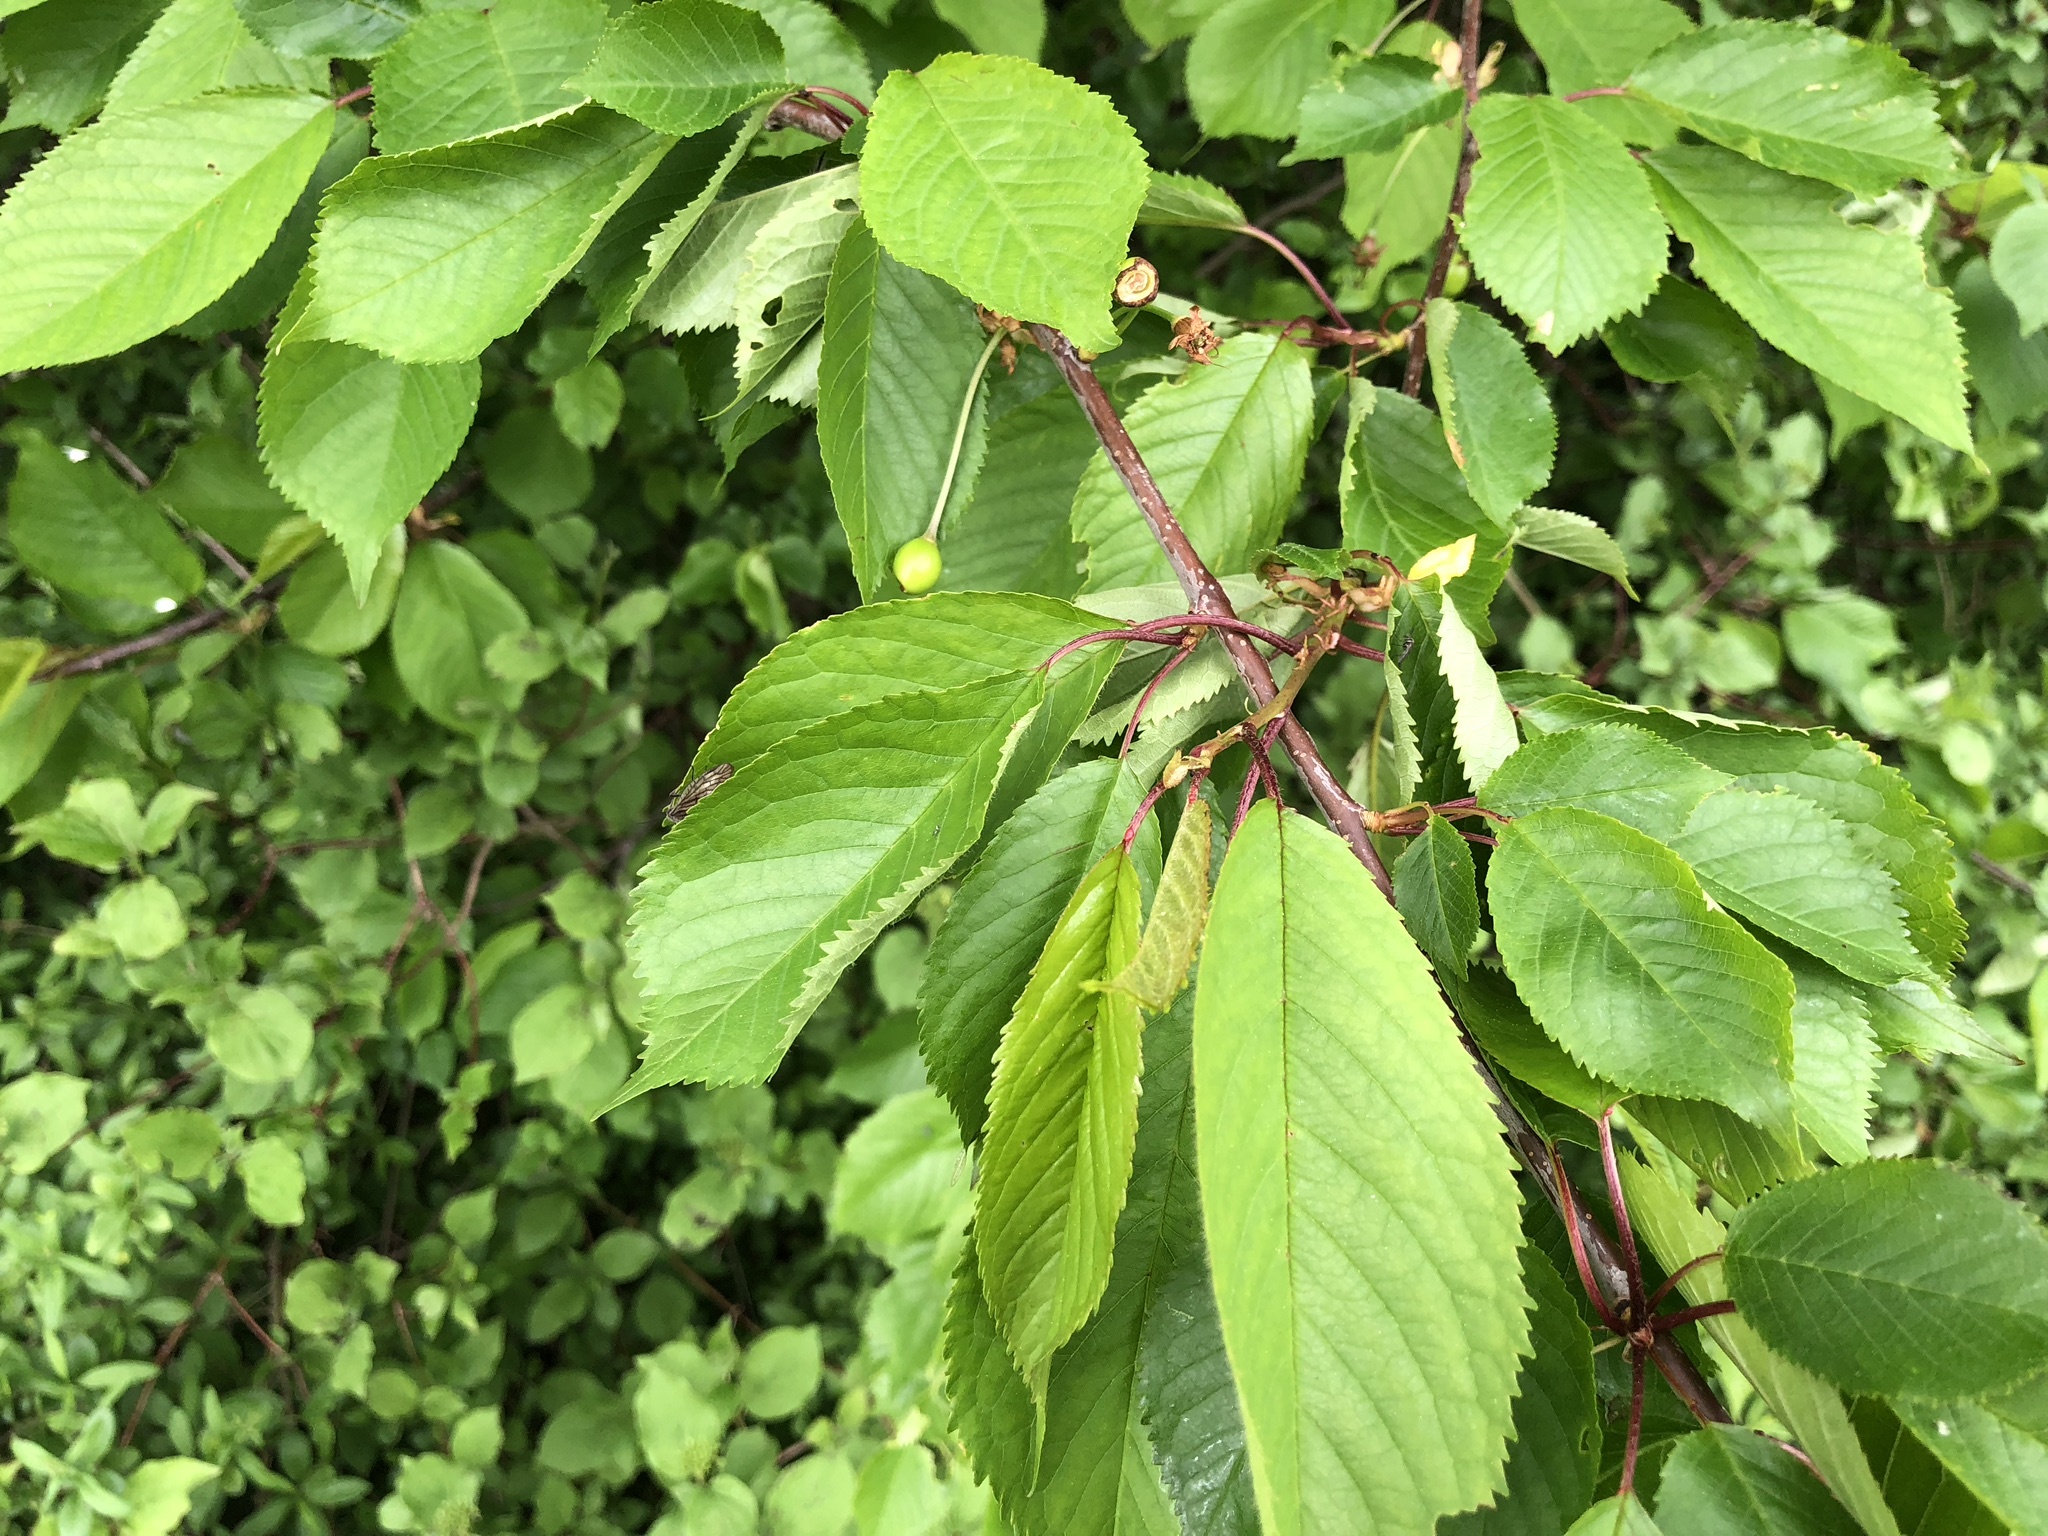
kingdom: Plantae
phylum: Tracheophyta
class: Magnoliopsida
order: Rosales
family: Rosaceae
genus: Prunus
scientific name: Prunus avium
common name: Sweet cherry
